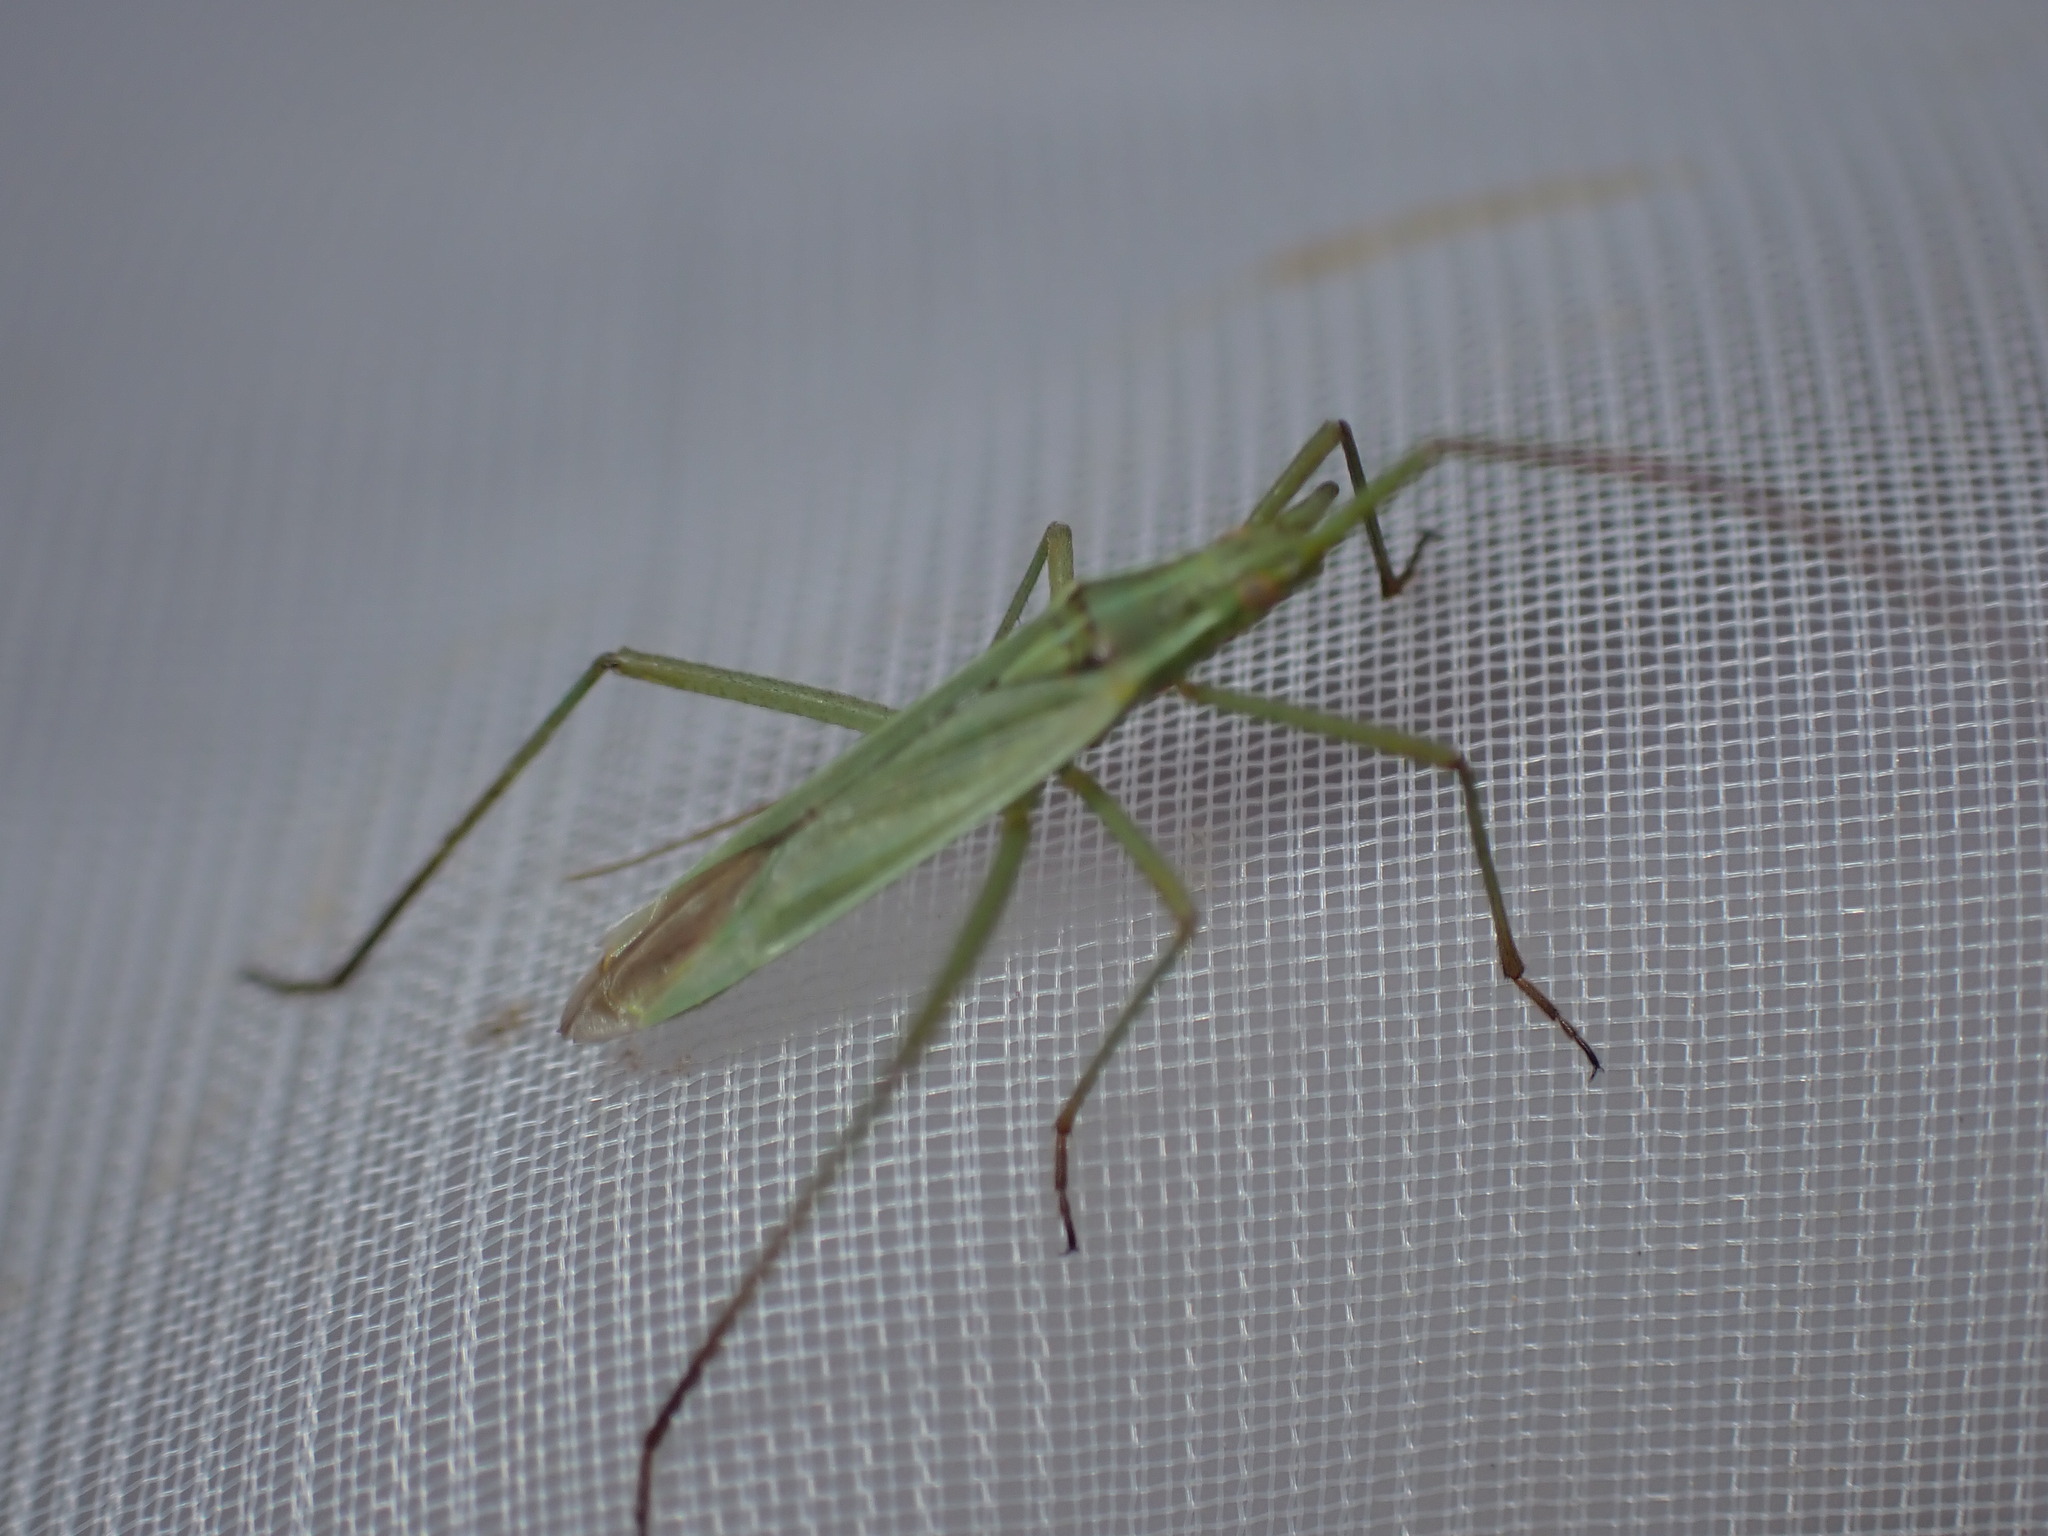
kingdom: Animalia
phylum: Arthropoda
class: Insecta
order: Hemiptera
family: Miridae
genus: Megaloceroea
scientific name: Megaloceroea recticornis
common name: Plant bug
